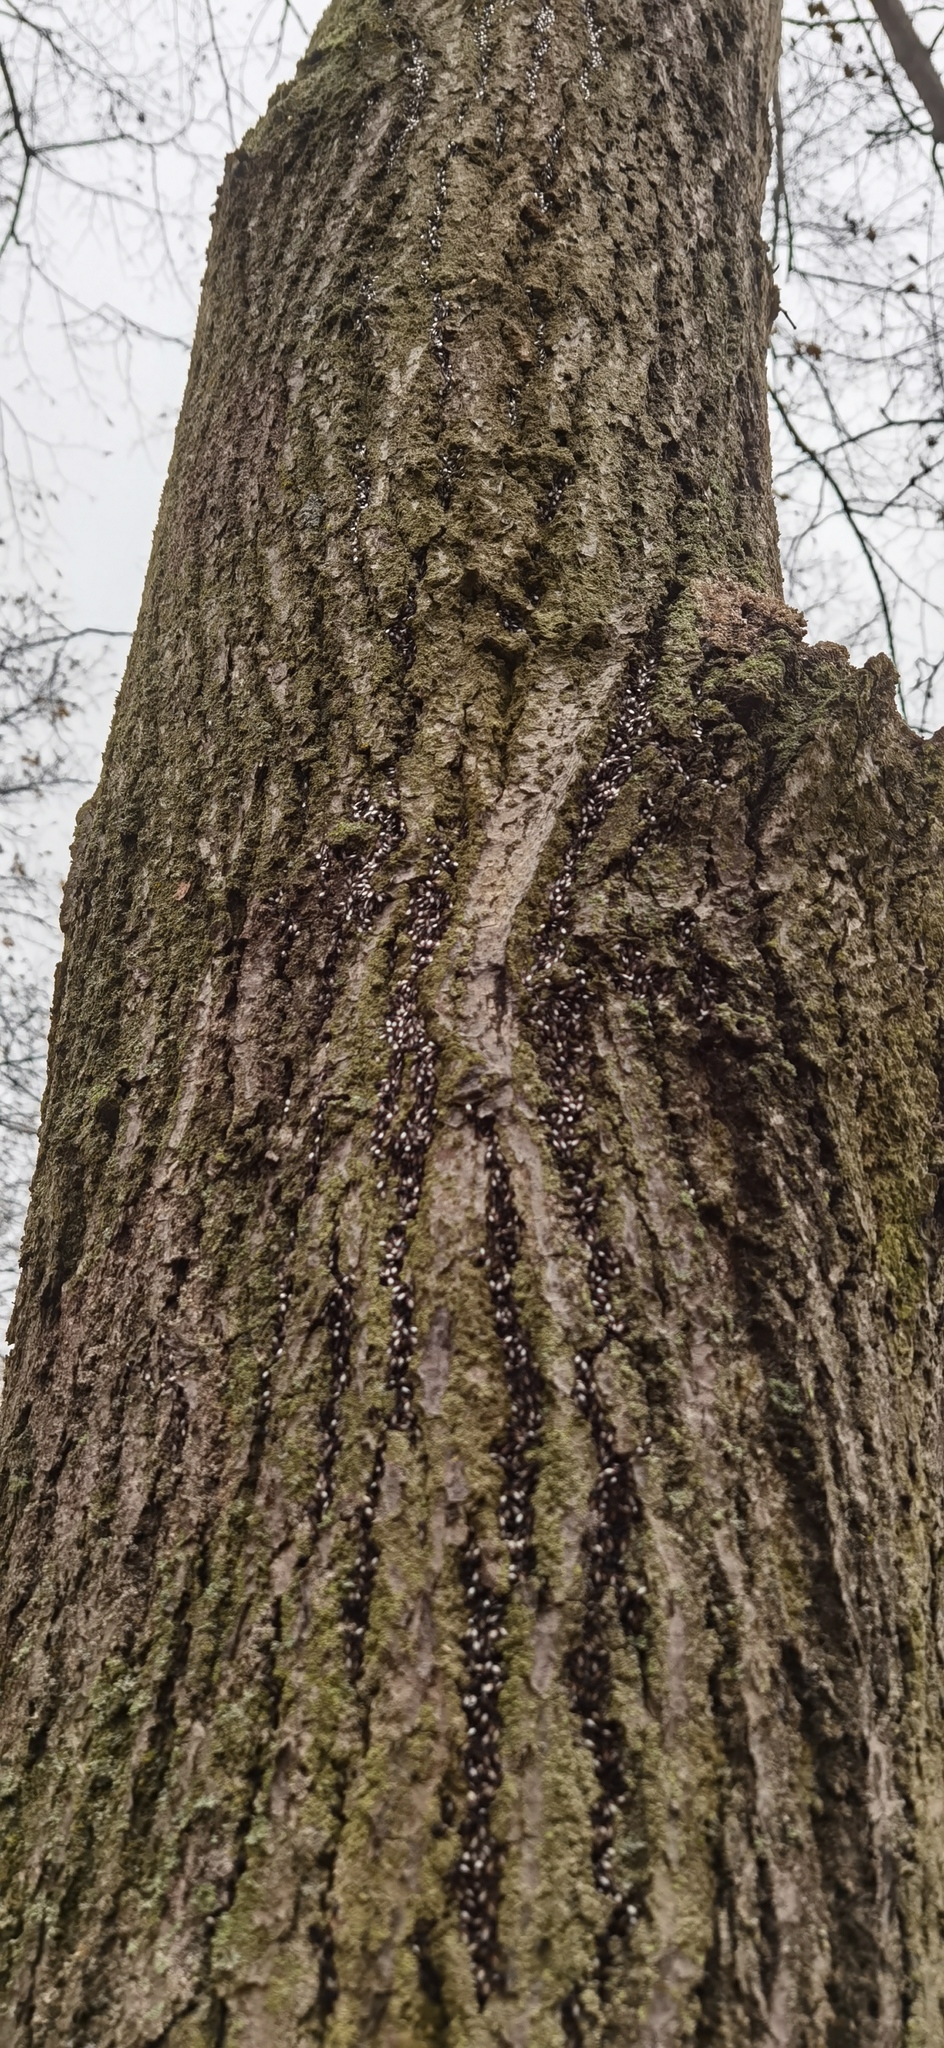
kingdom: Animalia
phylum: Arthropoda
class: Insecta
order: Hemiptera
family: Oxycarenidae
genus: Oxycarenus
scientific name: Oxycarenus lavaterae
